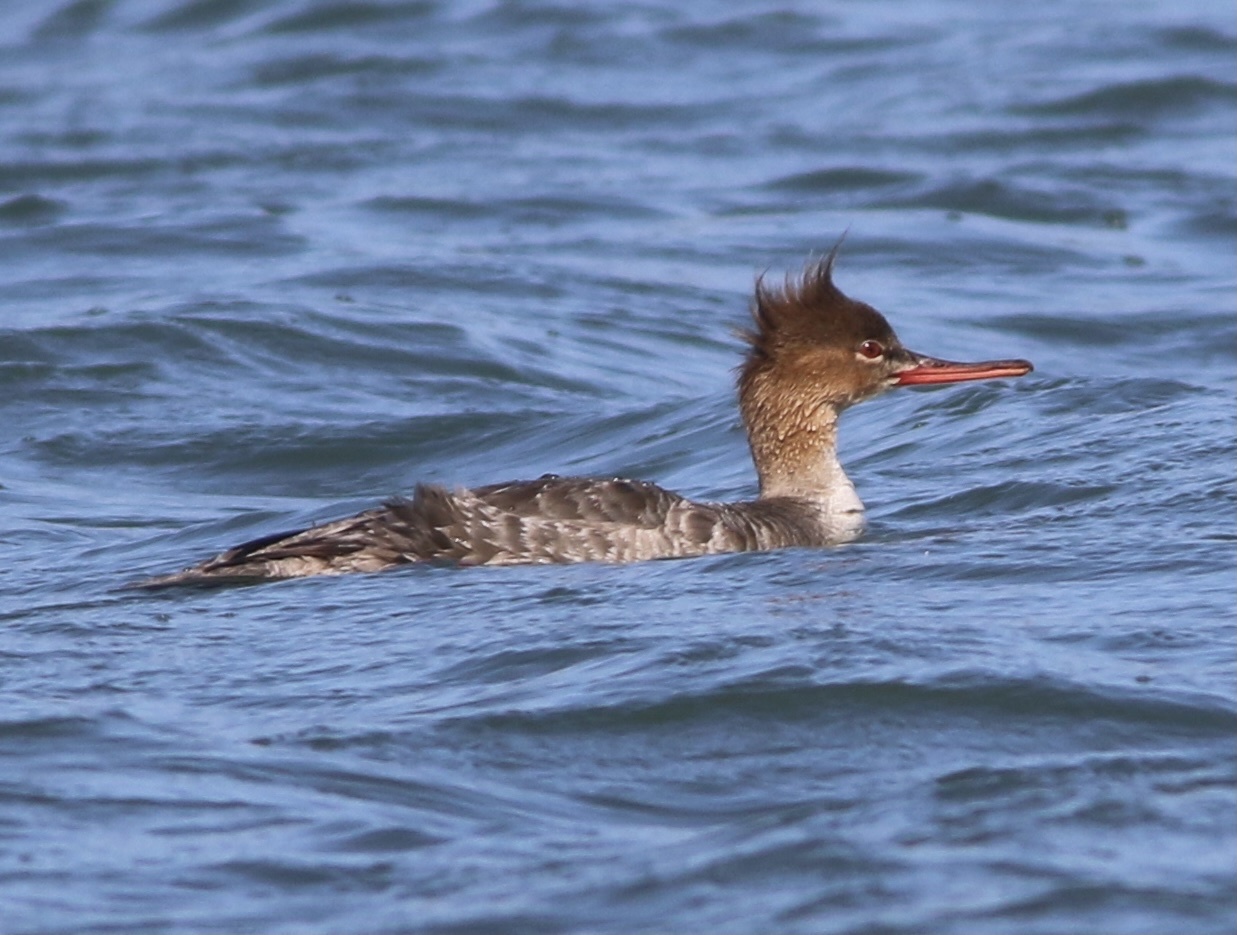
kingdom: Animalia
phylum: Chordata
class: Aves
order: Anseriformes
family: Anatidae
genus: Mergus
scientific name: Mergus serrator
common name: Red-breasted merganser
